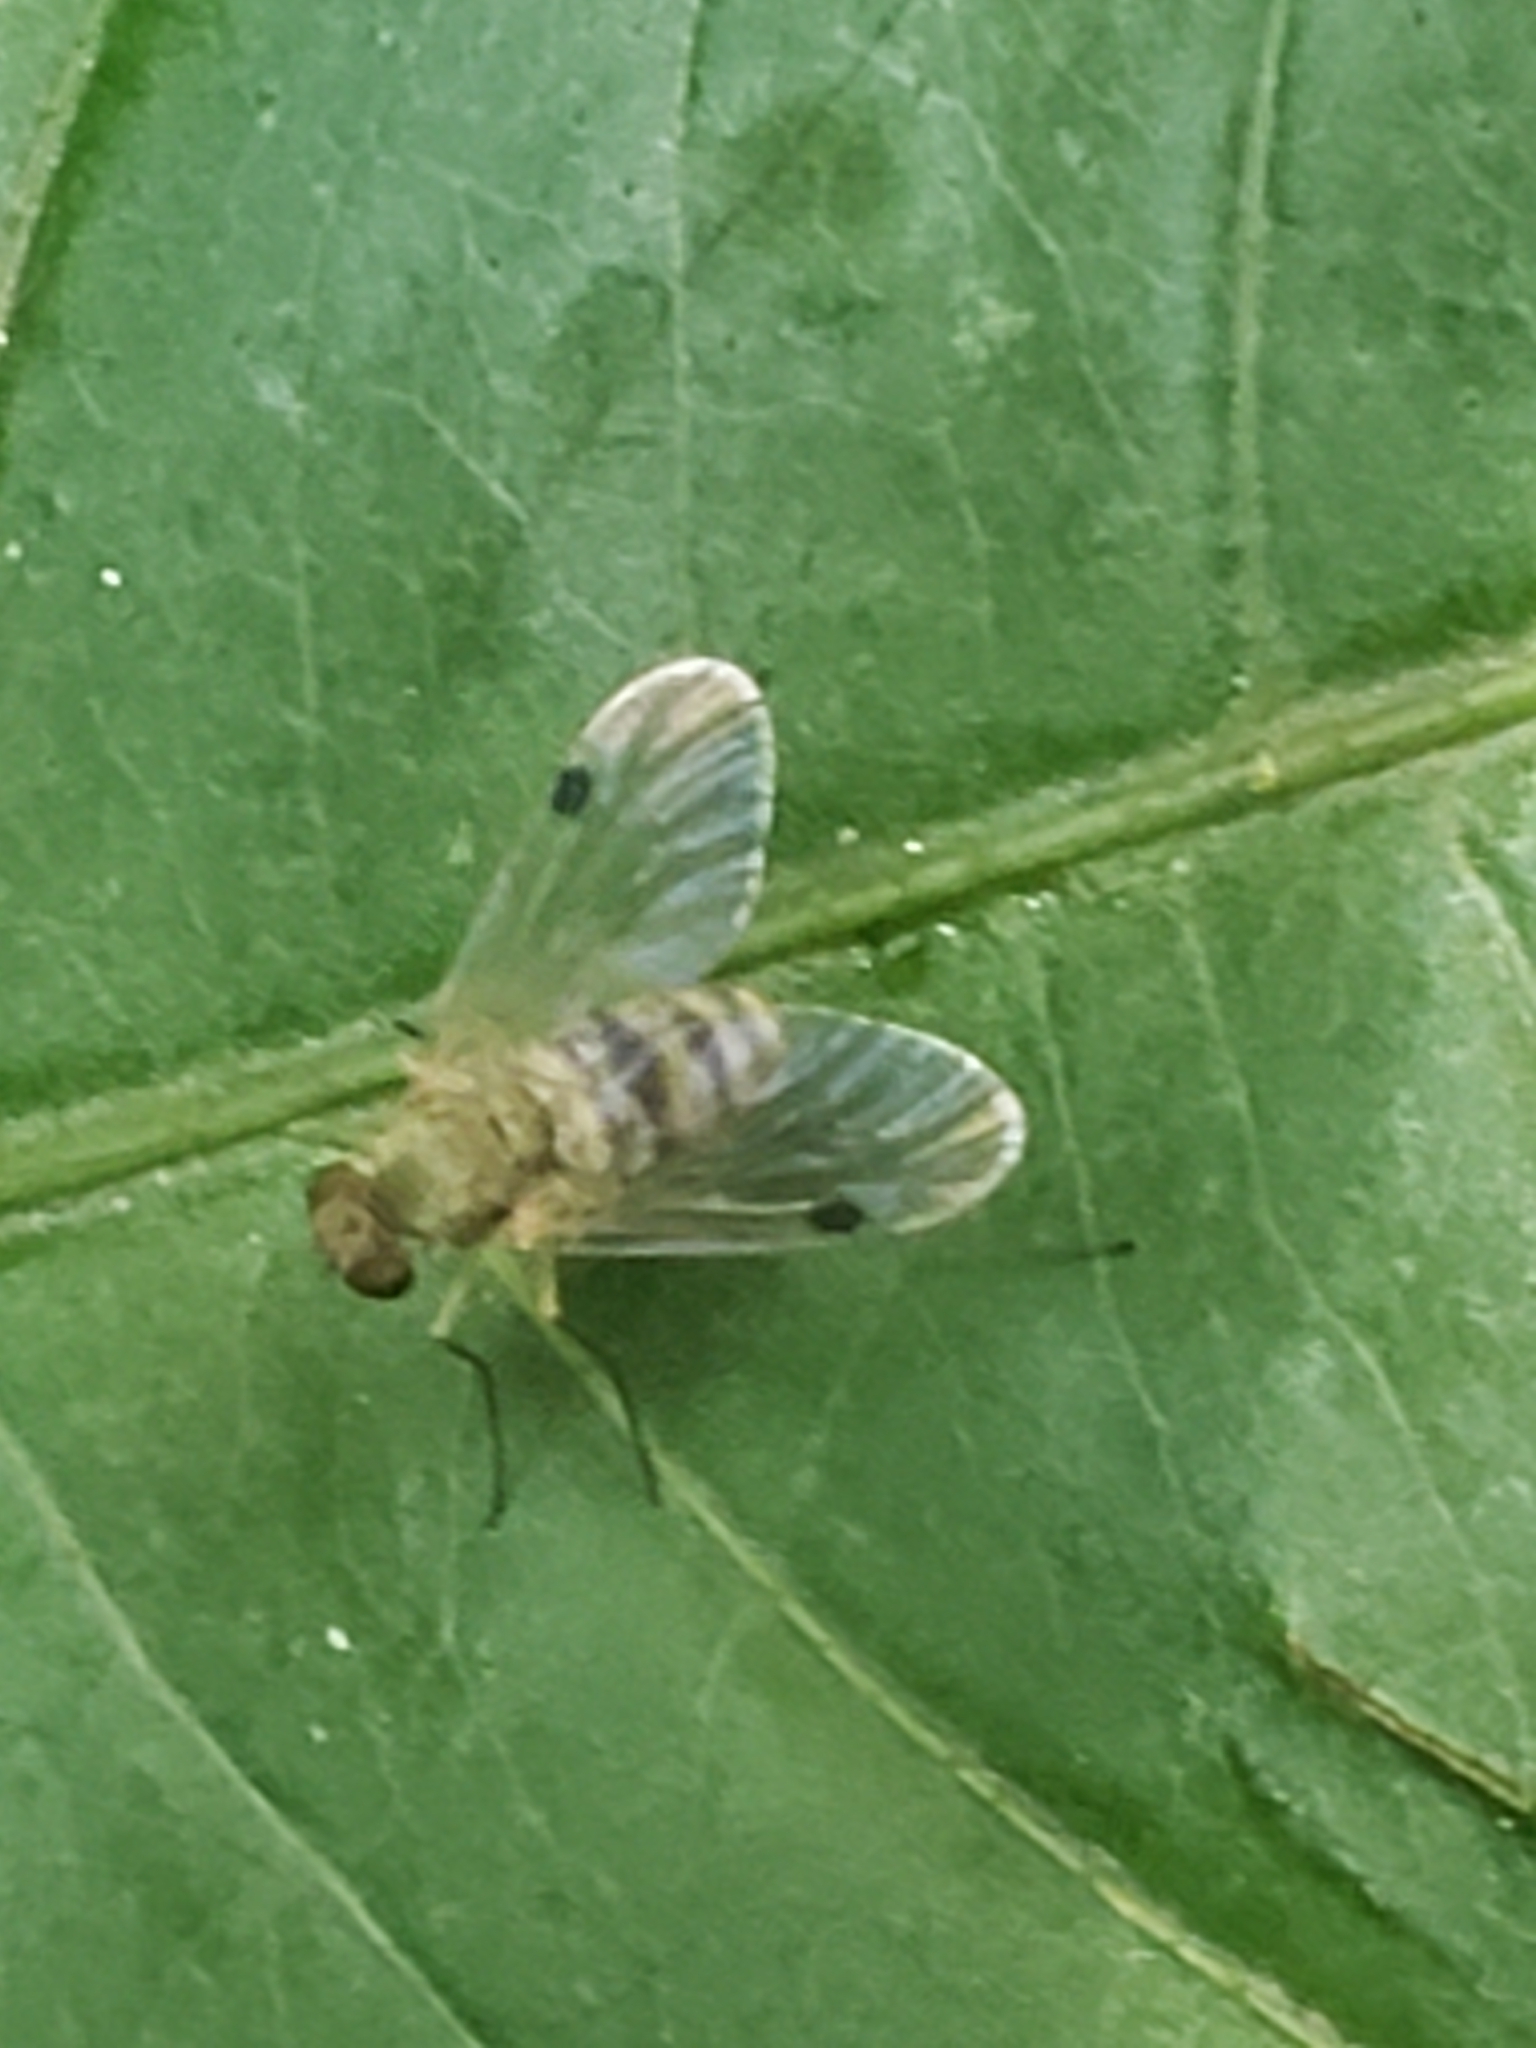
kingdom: Animalia
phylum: Arthropoda
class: Insecta
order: Diptera
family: Rhagionidae
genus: Chrysopilus
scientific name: Chrysopilus modestus
